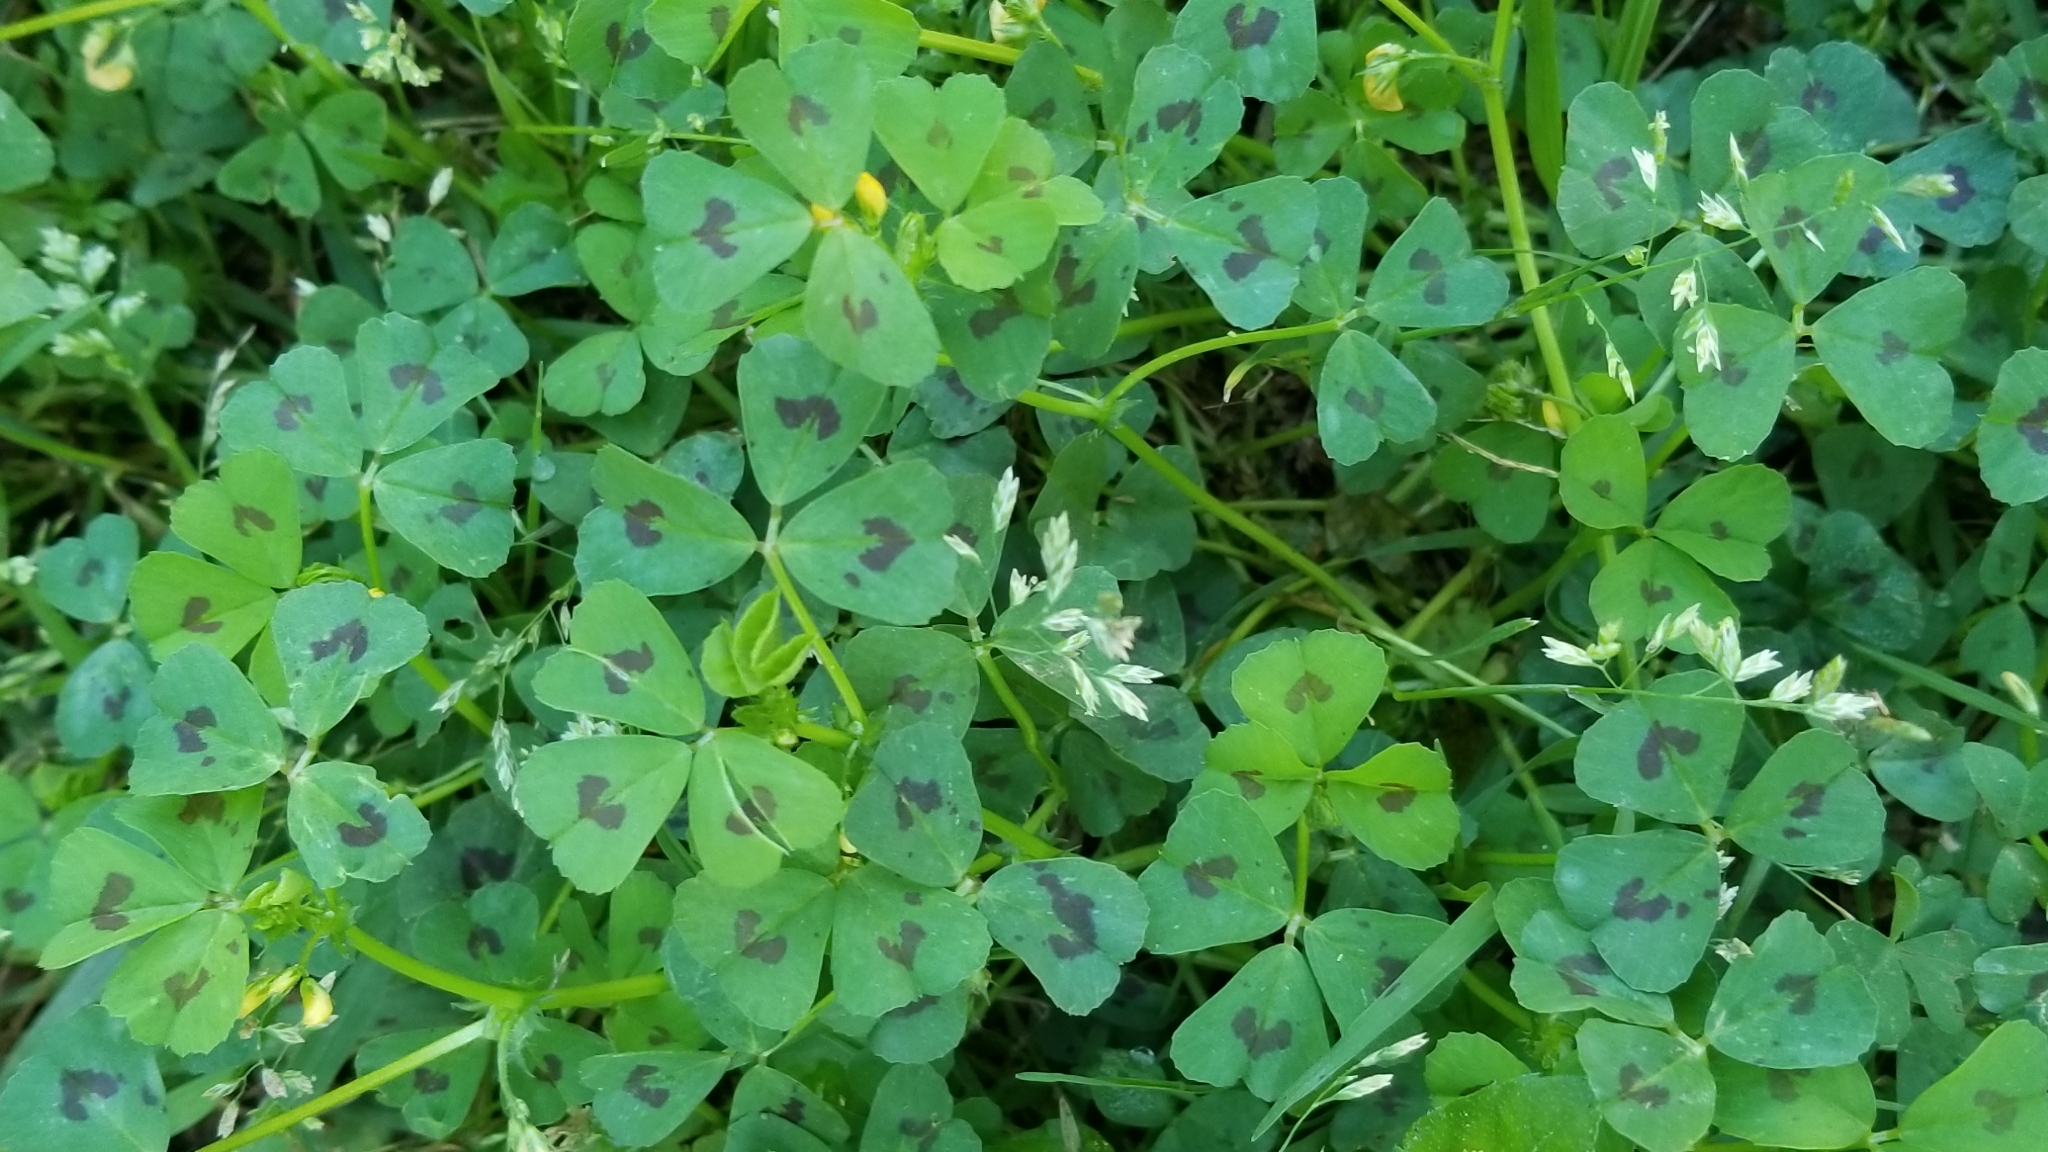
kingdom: Plantae
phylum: Tracheophyta
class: Magnoliopsida
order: Fabales
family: Fabaceae
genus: Medicago
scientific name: Medicago arabica
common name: Spotted medick
